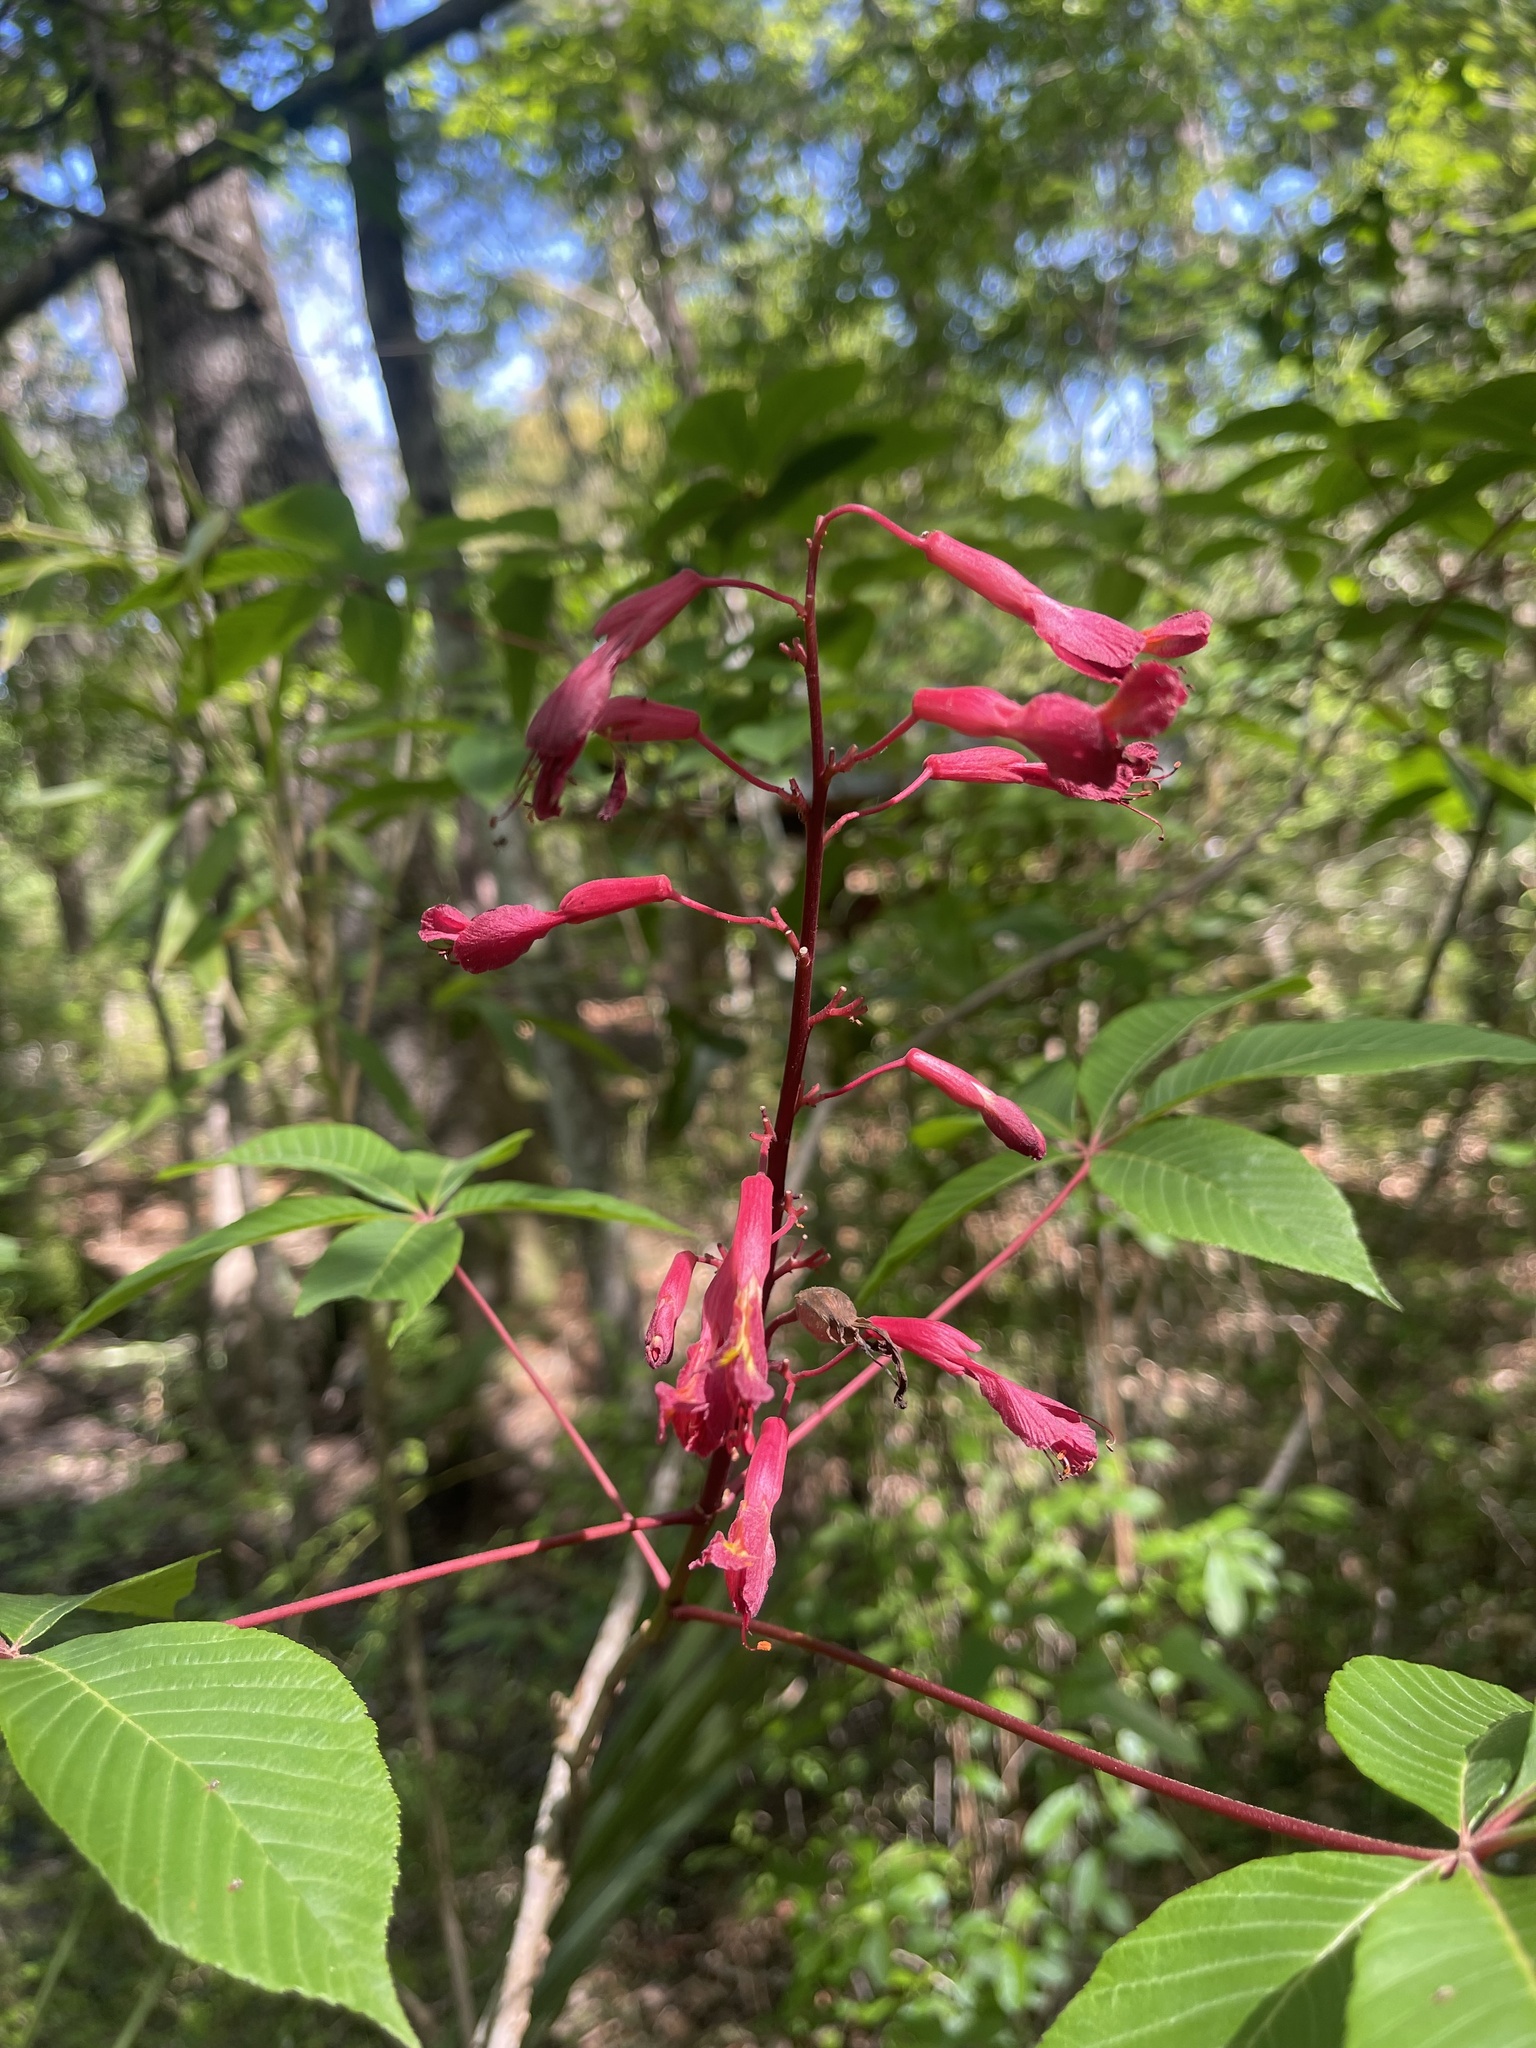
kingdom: Plantae
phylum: Tracheophyta
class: Magnoliopsida
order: Sapindales
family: Sapindaceae
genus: Aesculus
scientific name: Aesculus pavia
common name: Red buckeye
